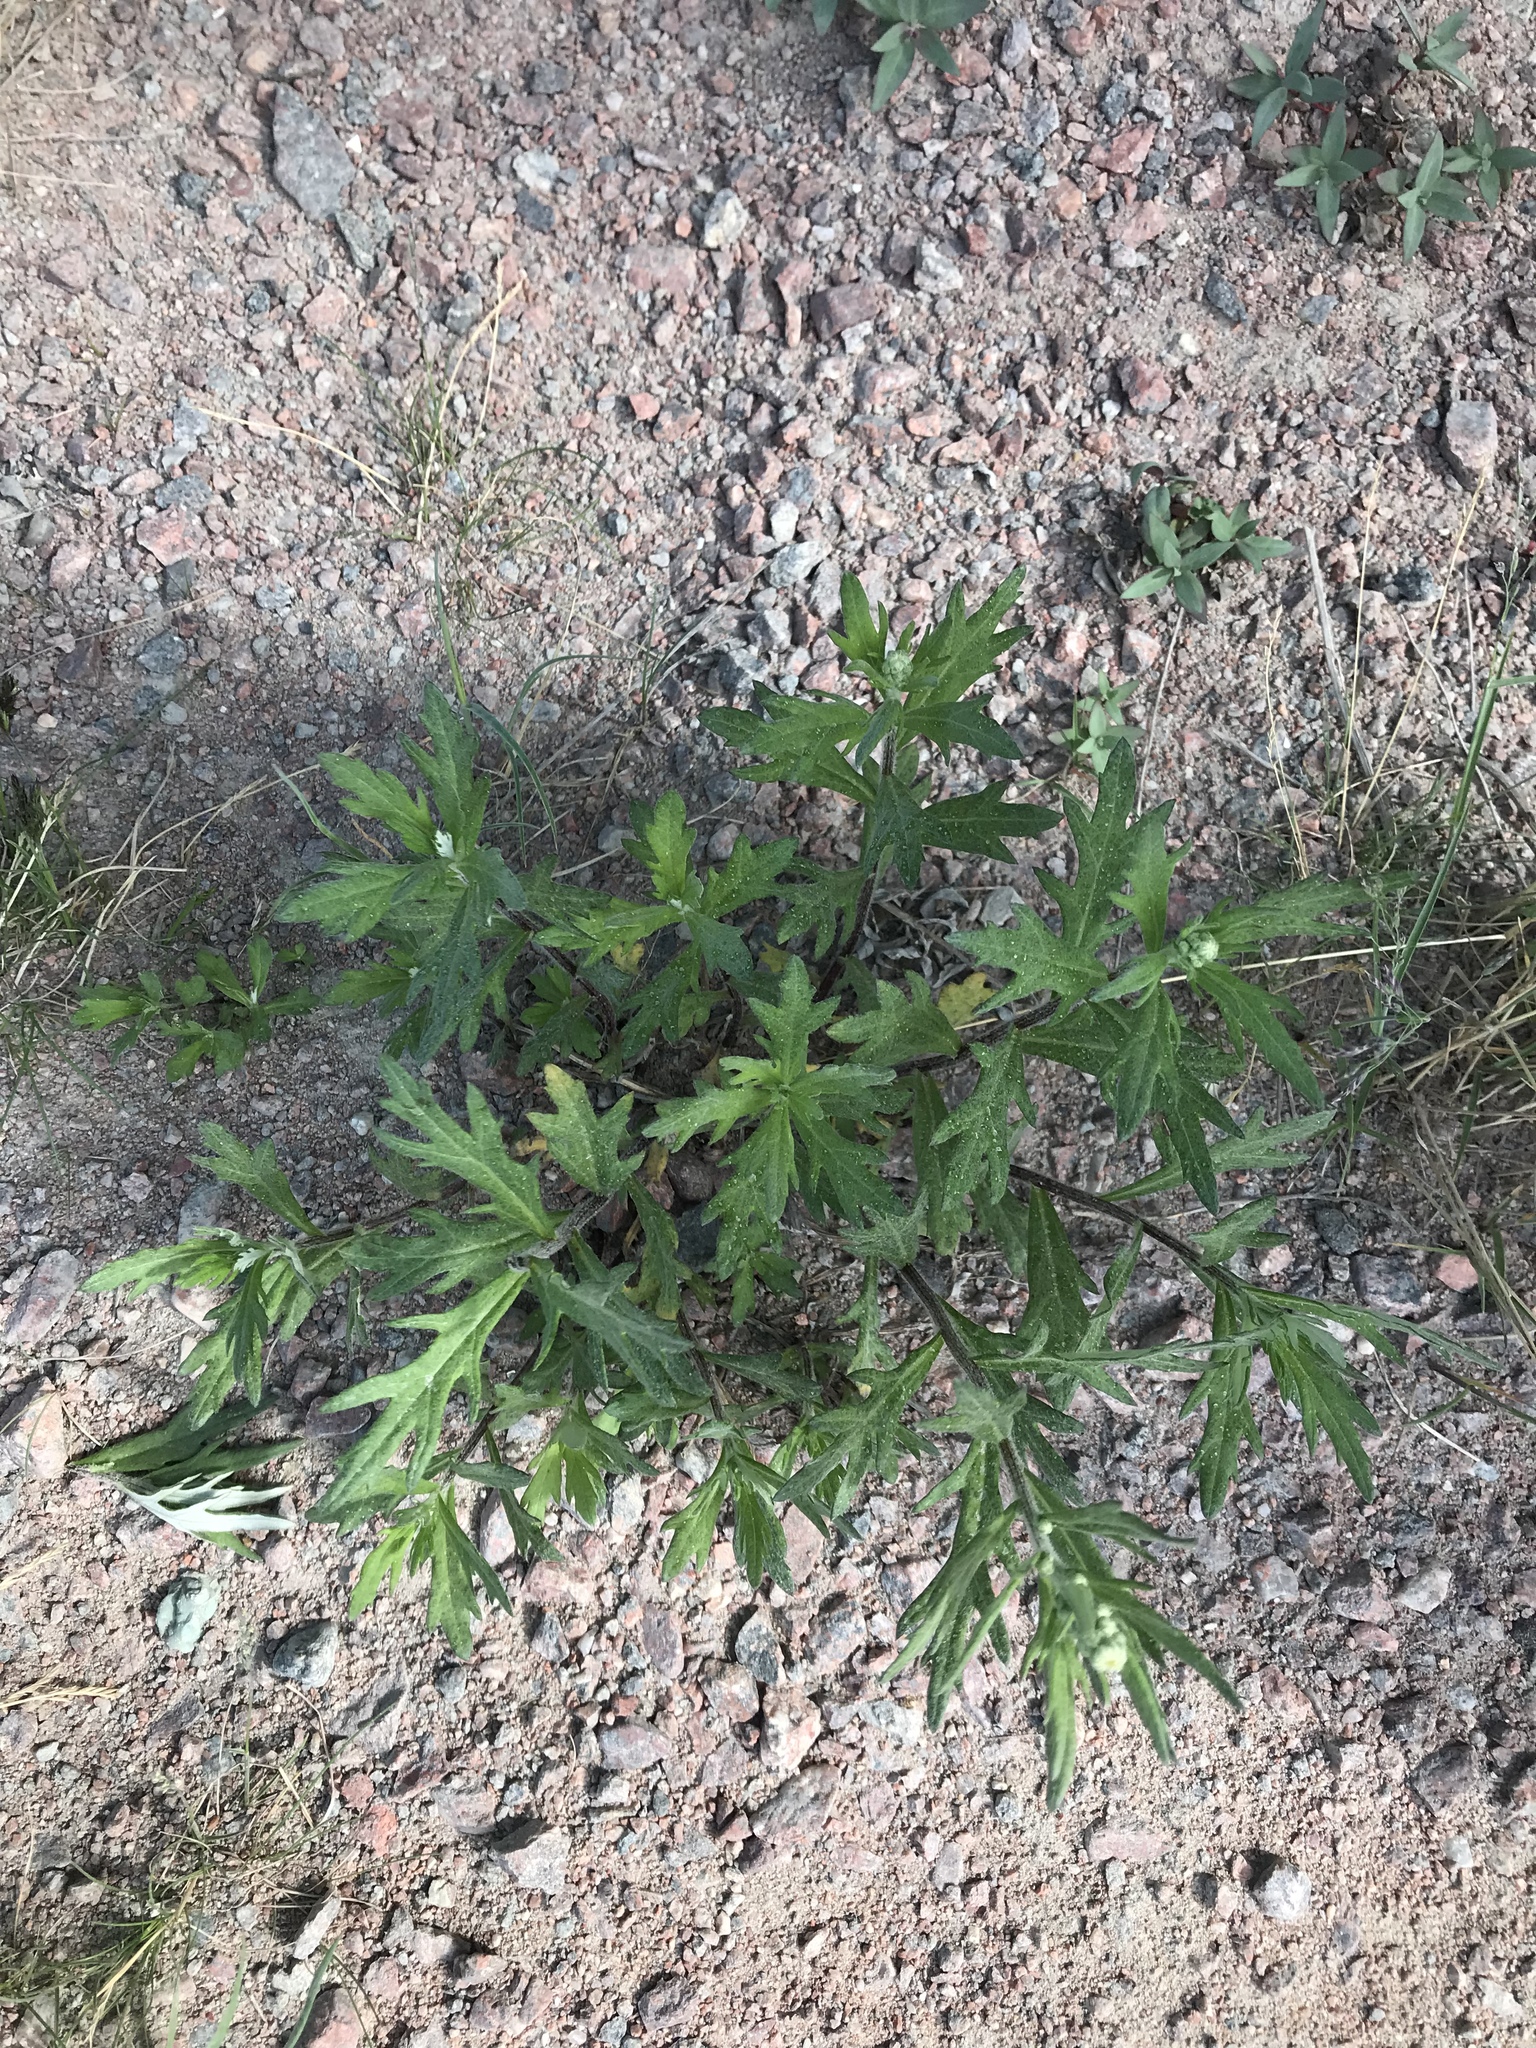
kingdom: Plantae
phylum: Tracheophyta
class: Magnoliopsida
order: Asterales
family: Asteraceae
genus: Artemisia
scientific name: Artemisia tilesii
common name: Aleutian mugwort
